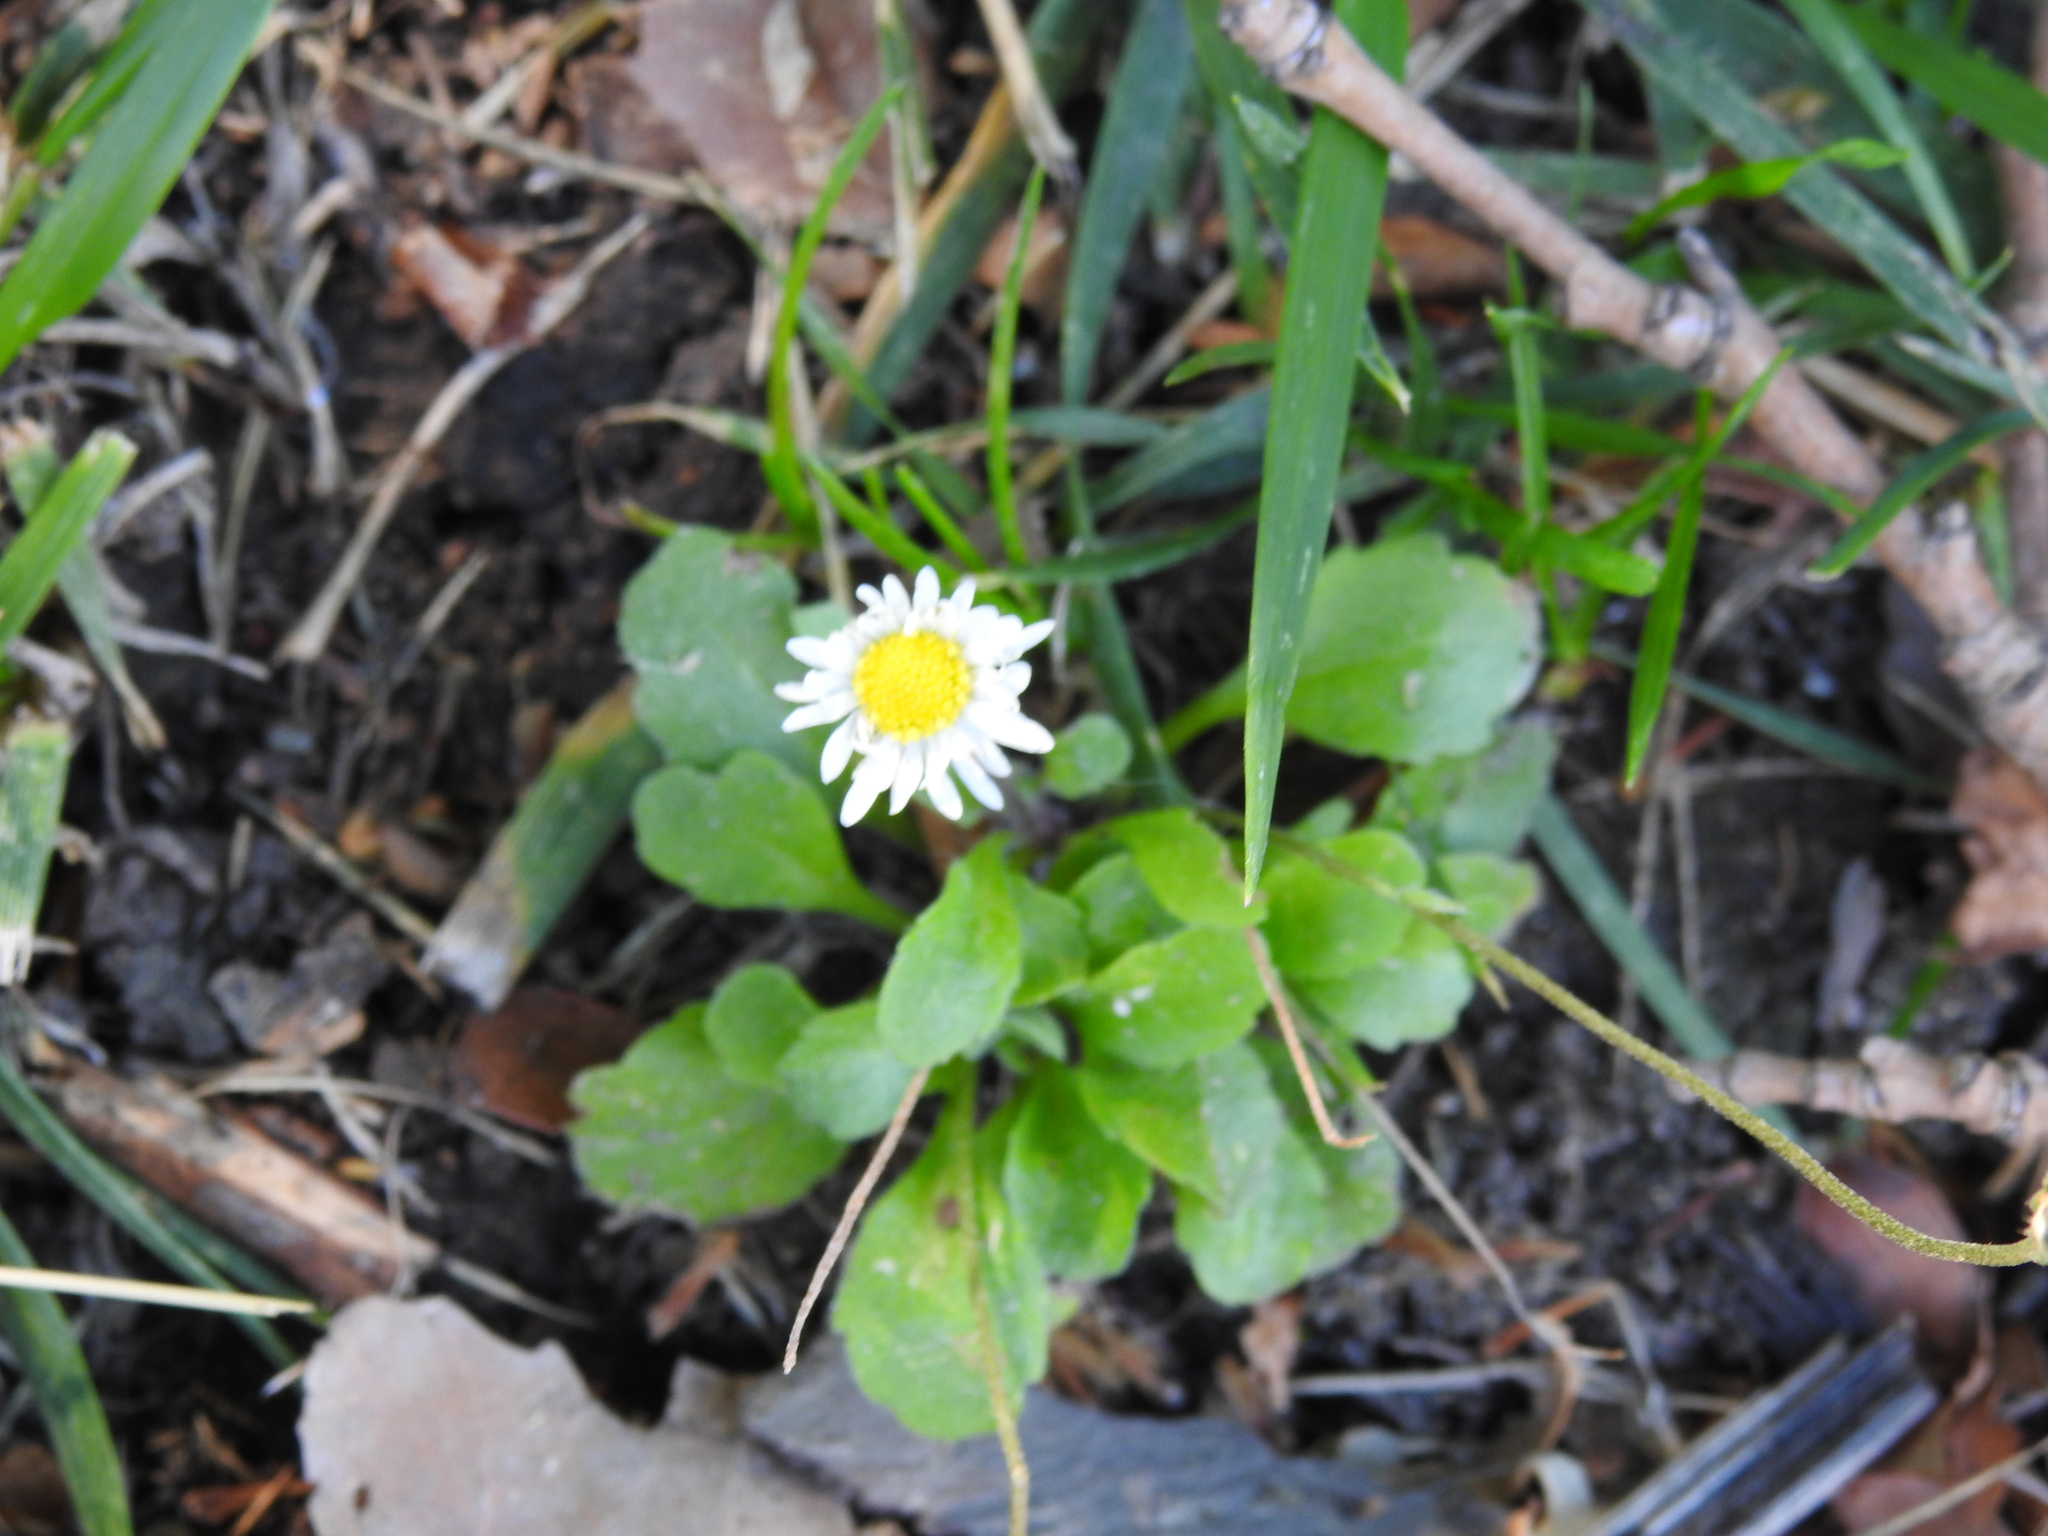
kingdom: Plantae
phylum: Tracheophyta
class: Magnoliopsida
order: Asterales
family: Asteraceae
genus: Bellis
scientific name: Bellis perennis
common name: Lawndaisy
